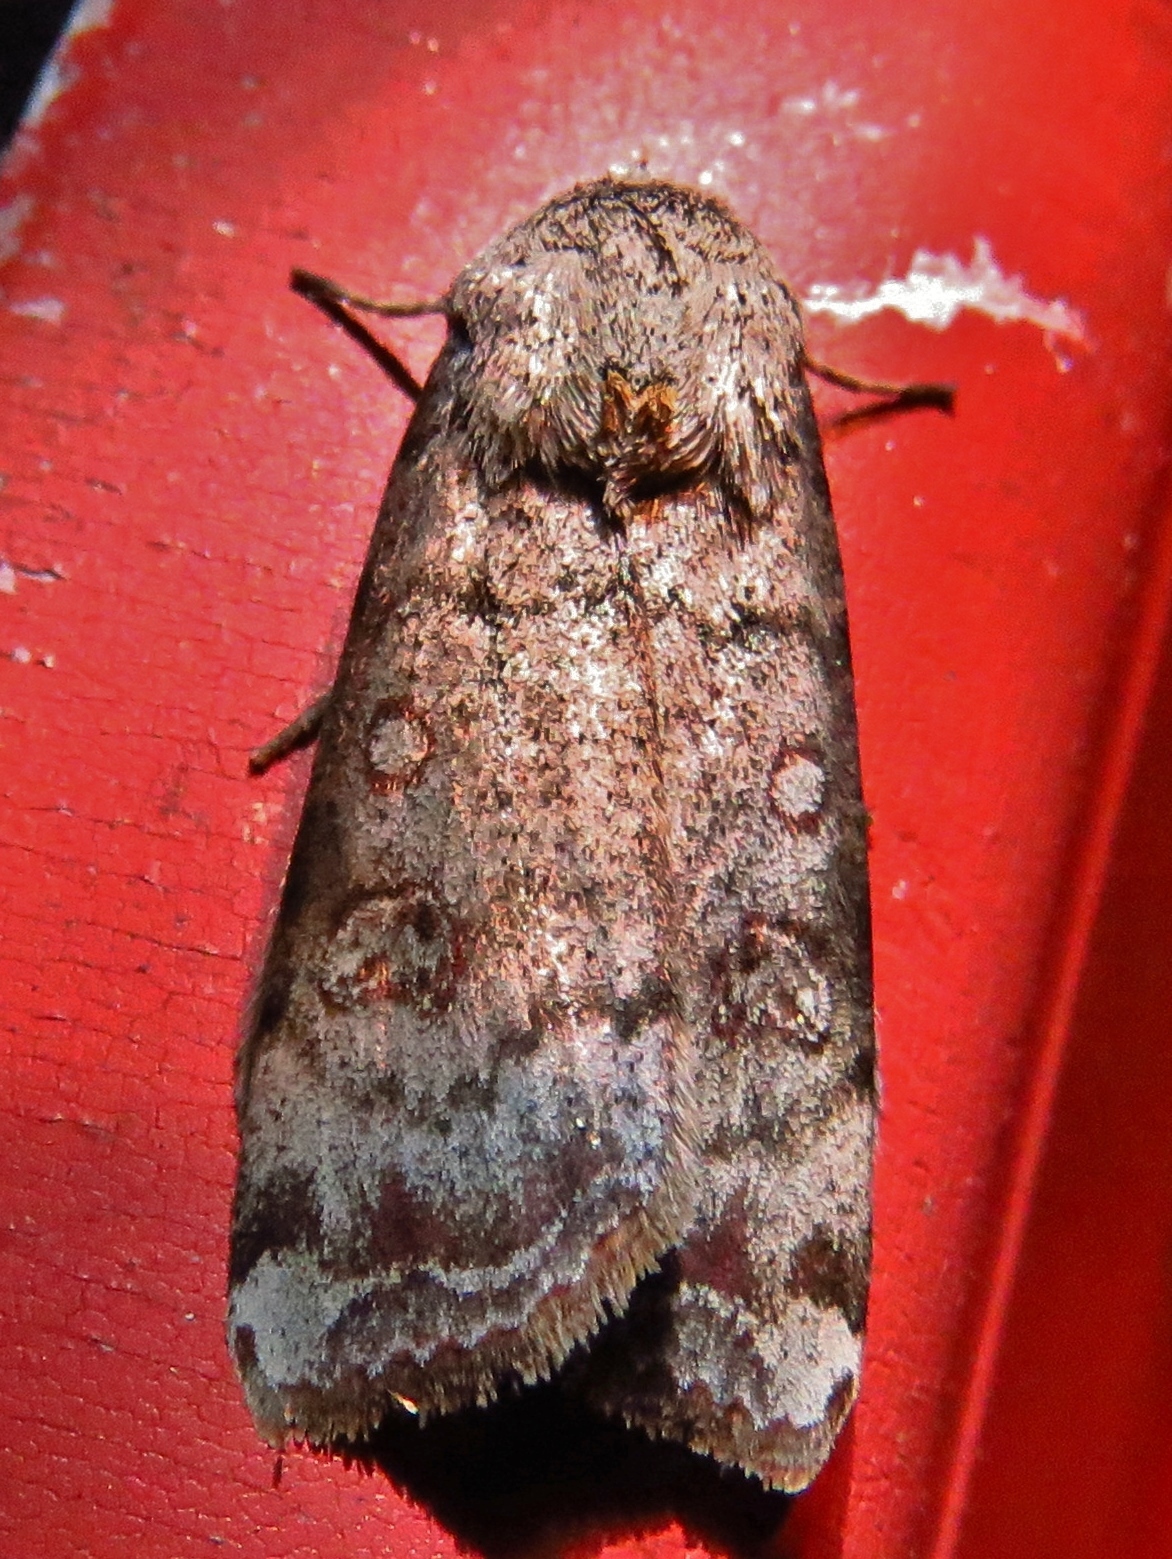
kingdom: Animalia
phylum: Arthropoda
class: Insecta
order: Lepidoptera
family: Noctuidae
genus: Anicla
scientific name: Anicla infecta
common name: Green cutworm
